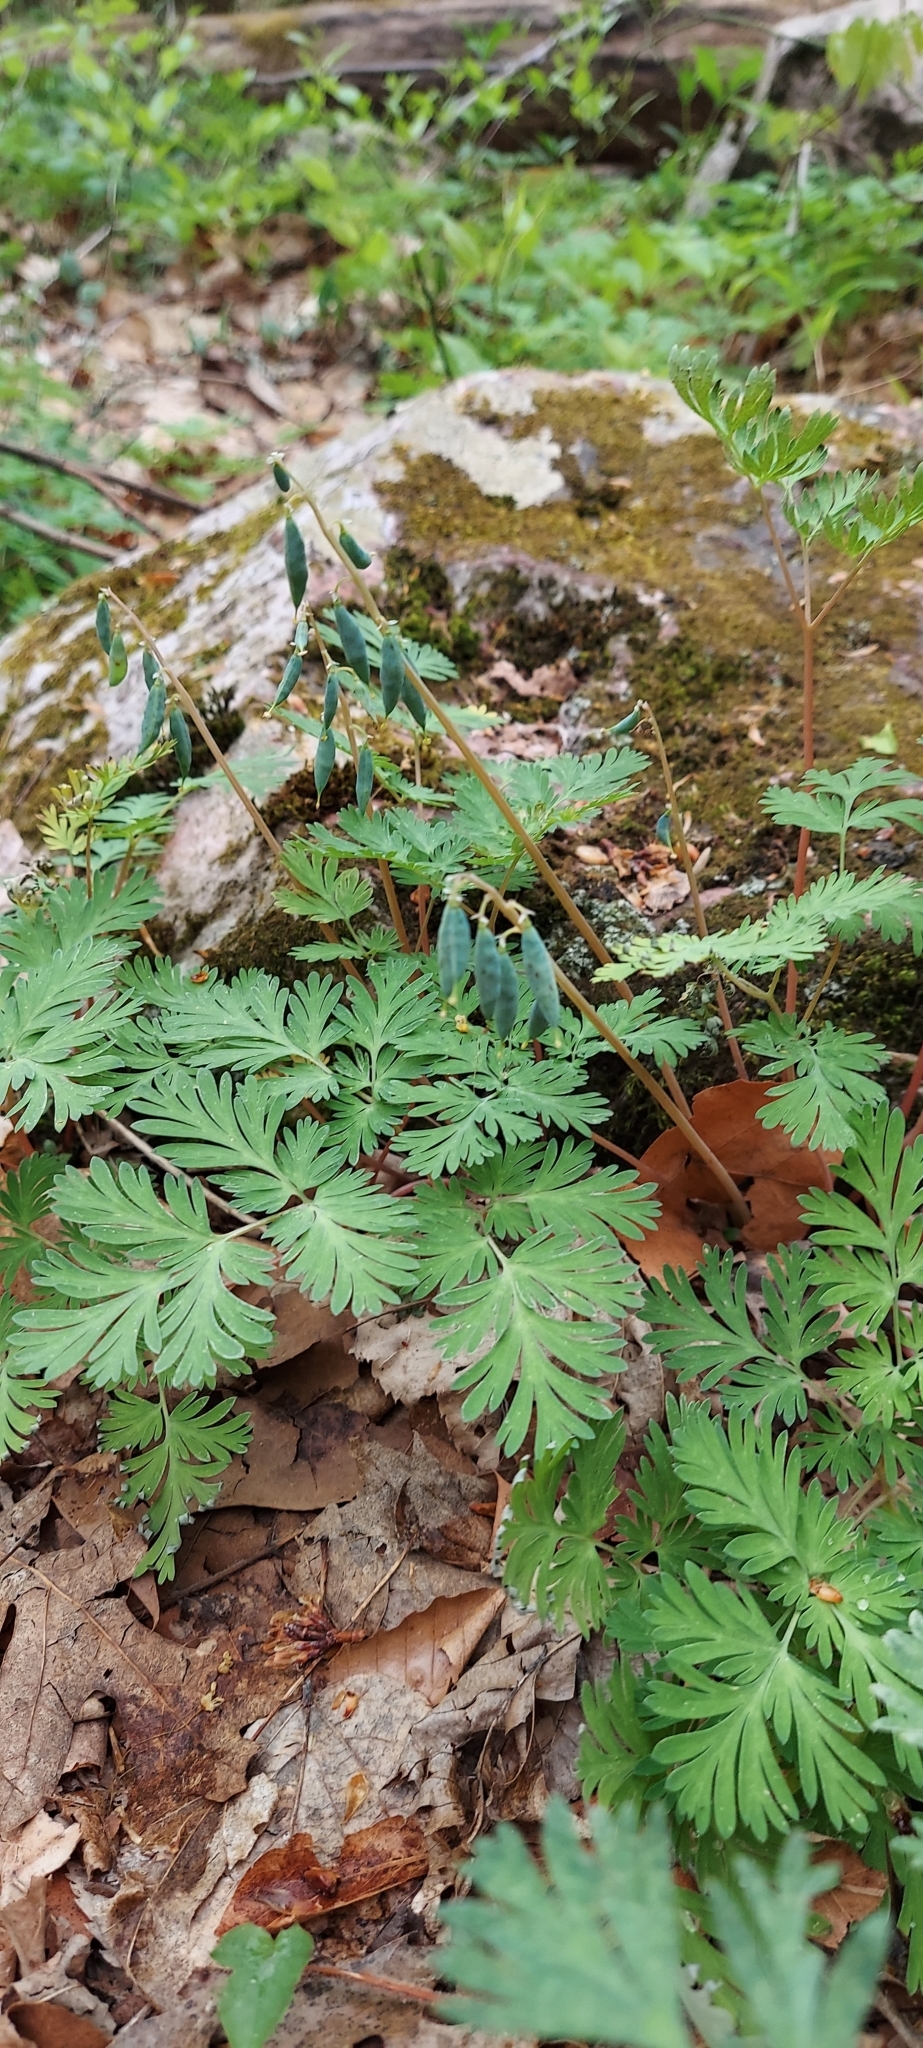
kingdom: Plantae
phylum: Tracheophyta
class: Magnoliopsida
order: Ranunculales
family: Papaveraceae
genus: Dicentra
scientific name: Dicentra cucullaria
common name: Dutchman's breeches
